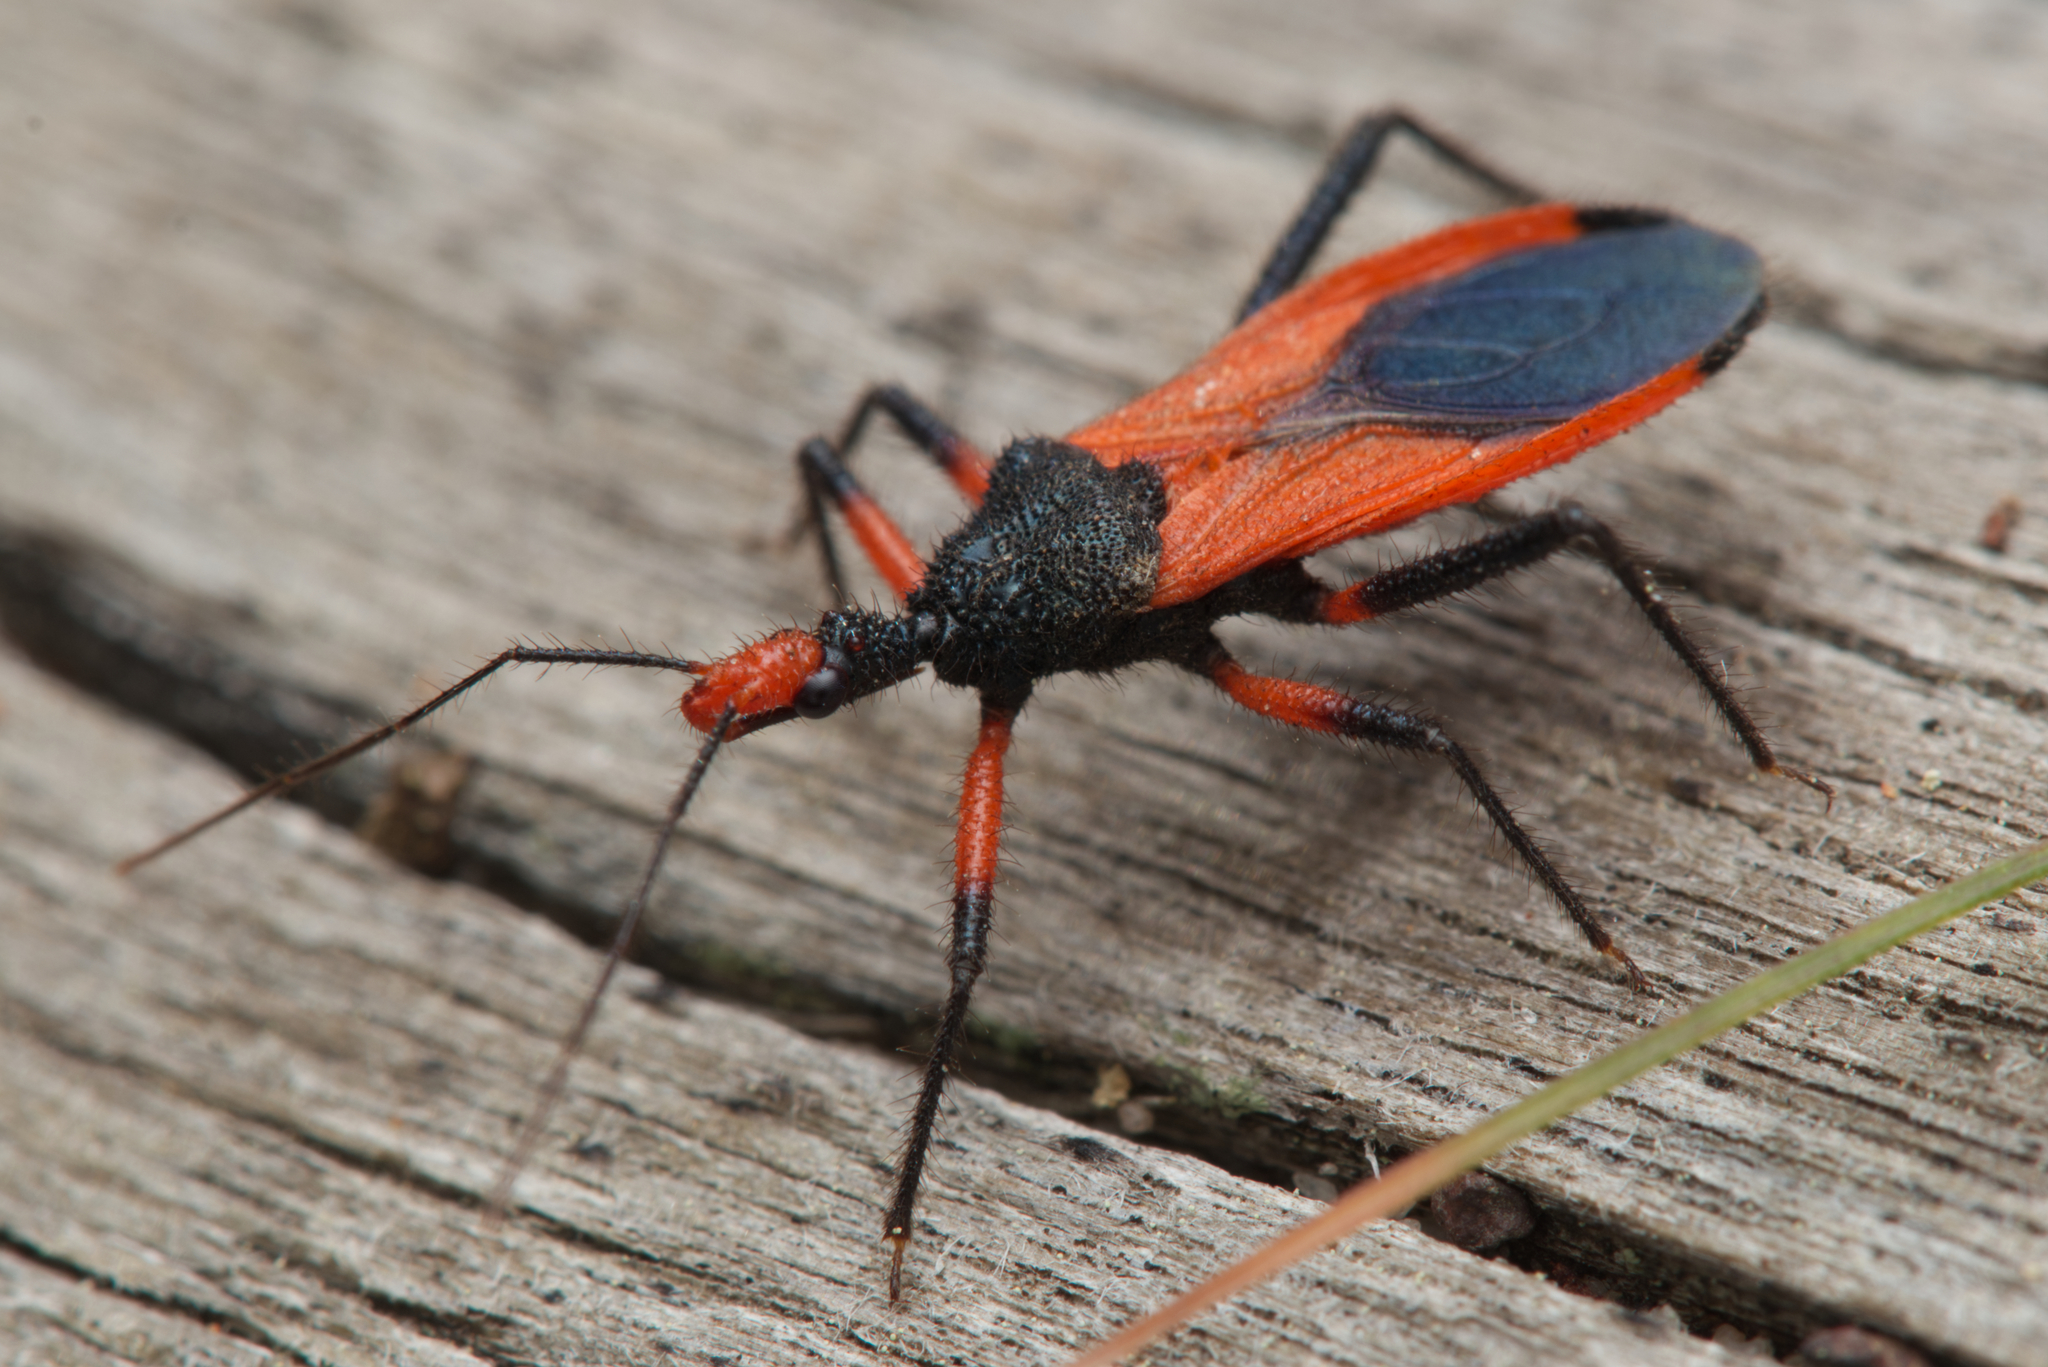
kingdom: Animalia
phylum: Arthropoda
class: Insecta
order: Hemiptera
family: Reduviidae
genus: Nicrus
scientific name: Nicrus eumorphus
